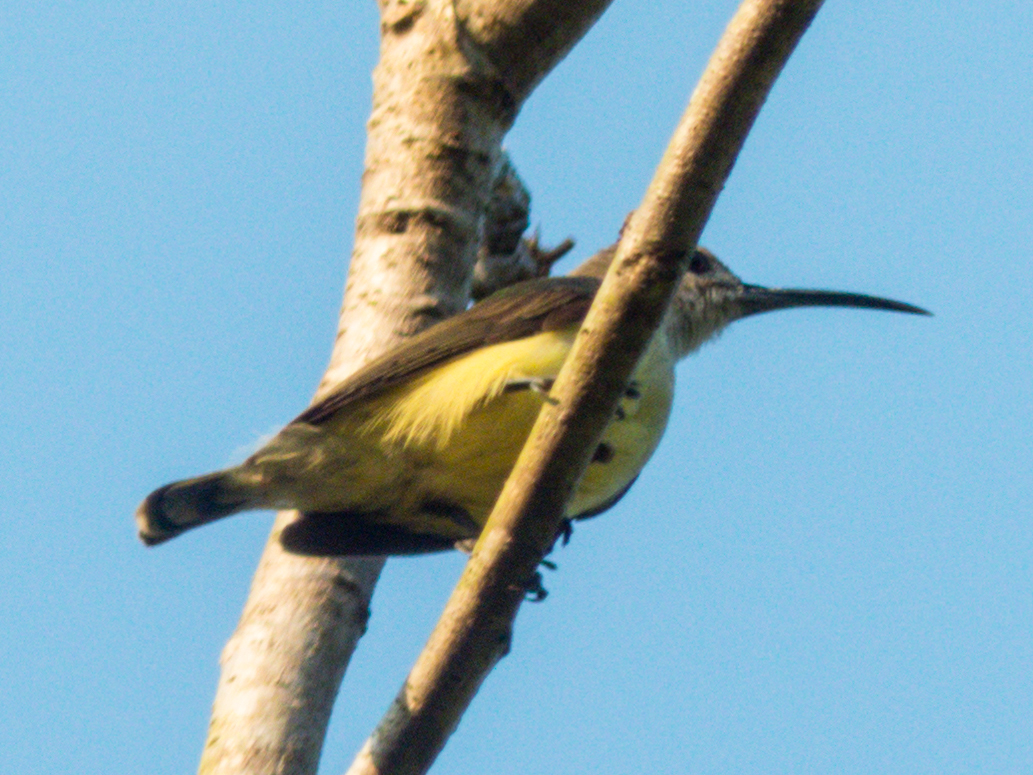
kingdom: Animalia
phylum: Chordata
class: Aves
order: Passeriformes
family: Nectariniidae
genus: Arachnothera
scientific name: Arachnothera longirostra
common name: Little spiderhunter
